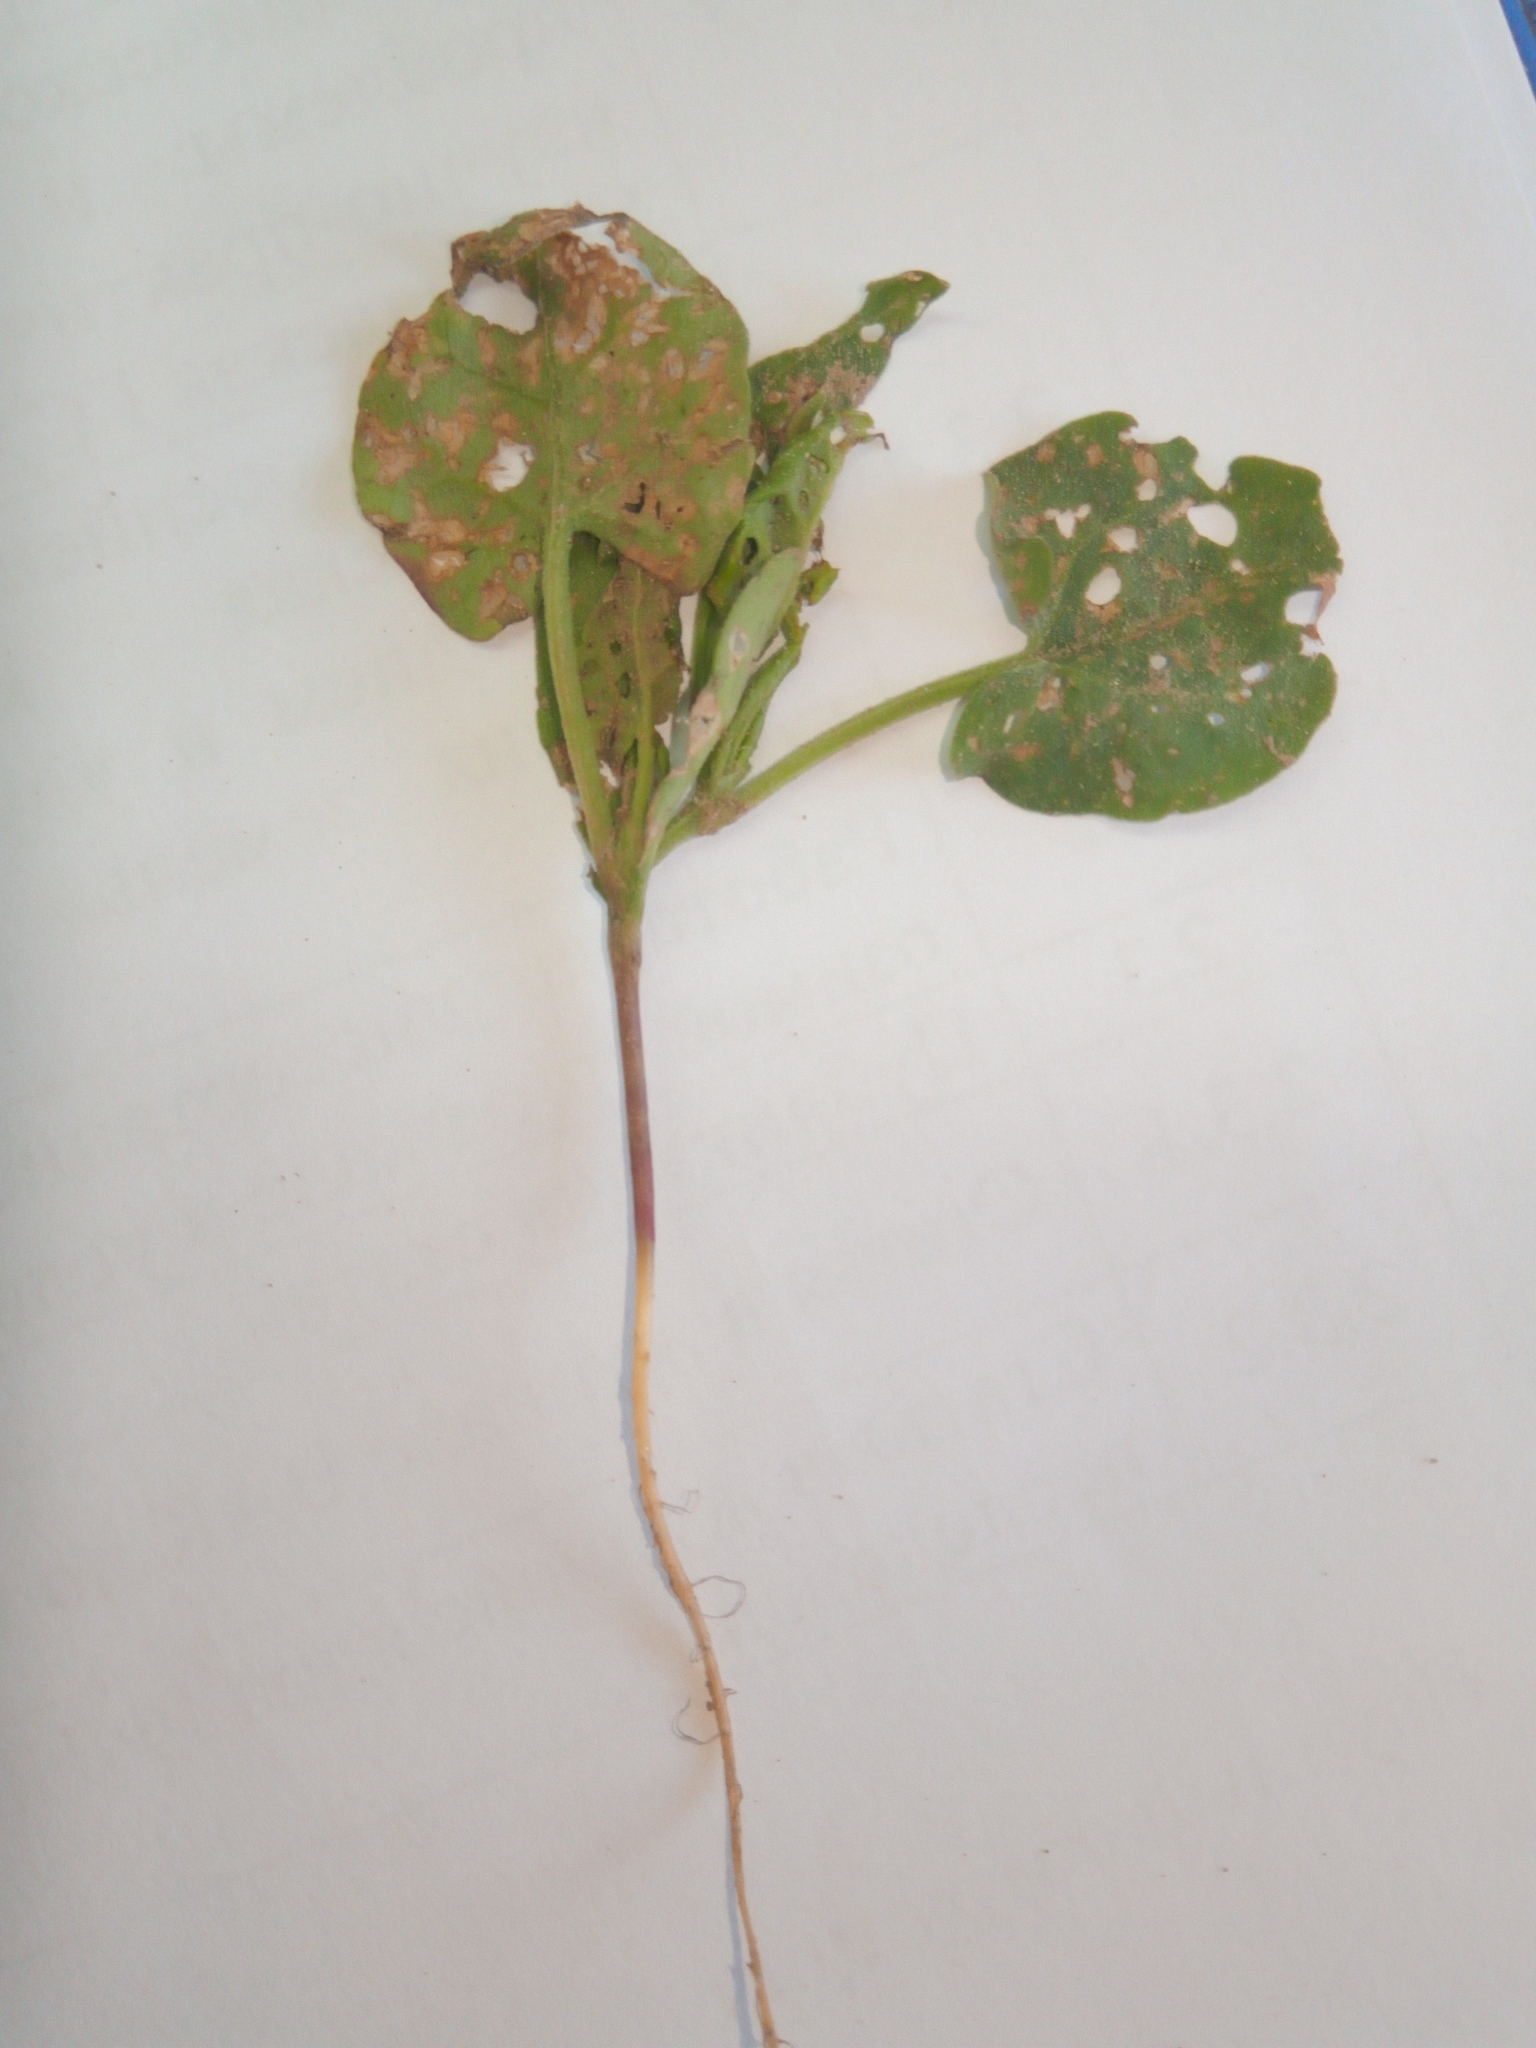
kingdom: Plantae
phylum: Tracheophyta
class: Magnoliopsida
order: Caryophyllales
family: Polygonaceae
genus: Fallopia
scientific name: Fallopia convolvulus
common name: Black bindweed
